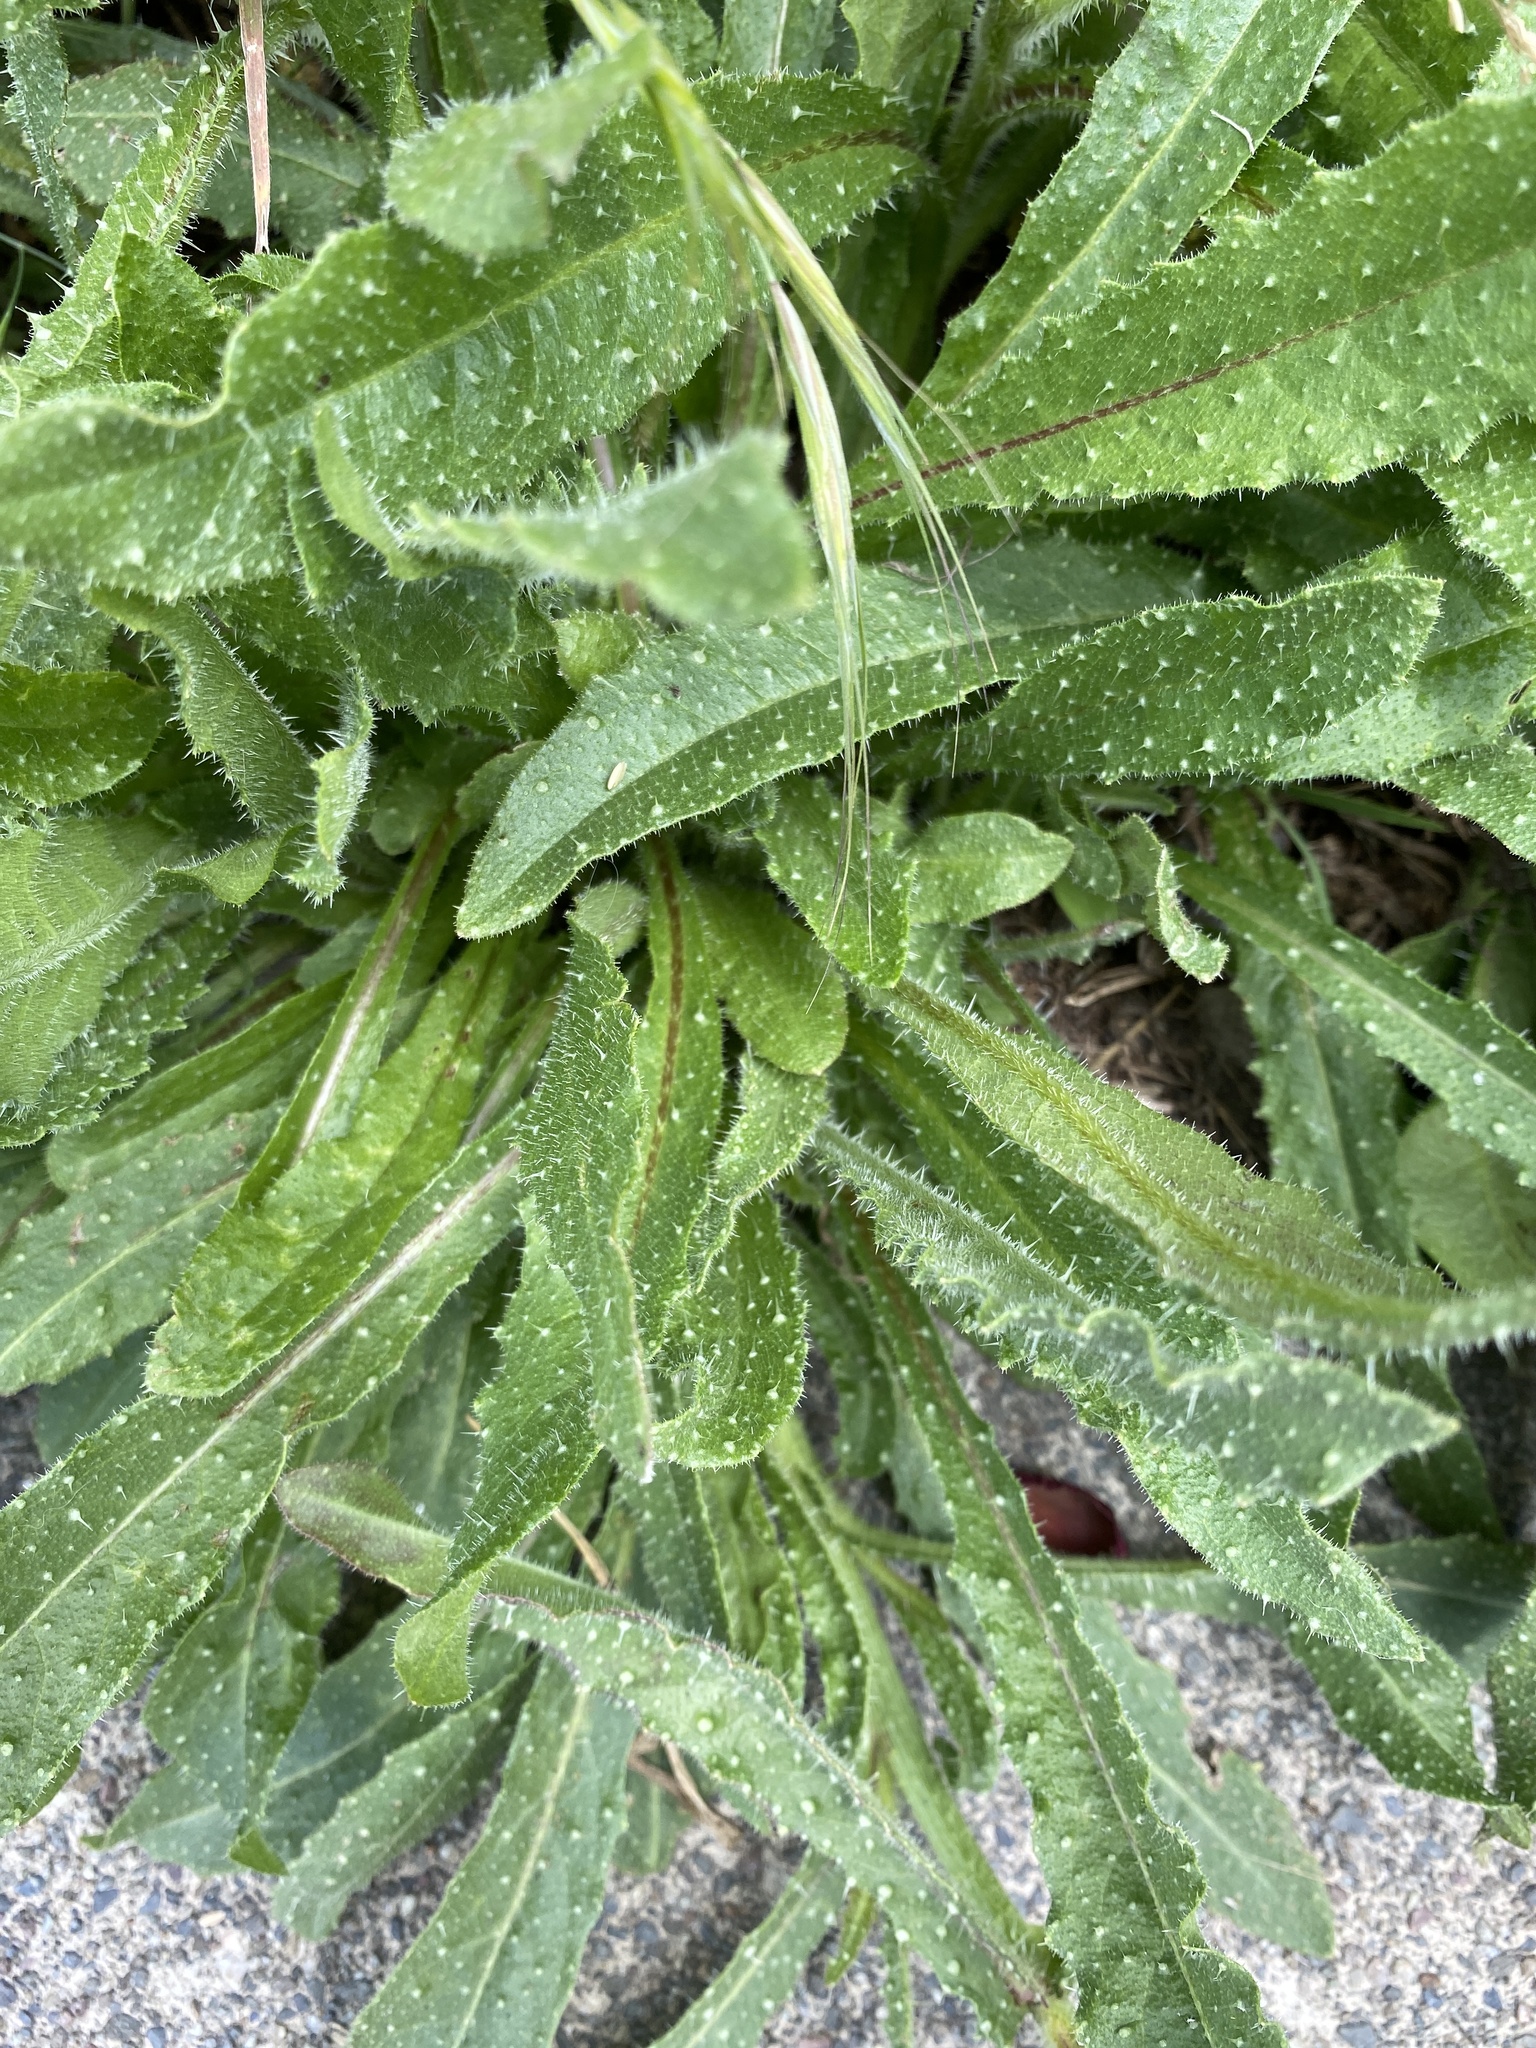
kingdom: Plantae
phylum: Tracheophyta
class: Magnoliopsida
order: Asterales
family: Asteraceae
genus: Helminthotheca
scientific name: Helminthotheca echioides
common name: Ox-tongue
